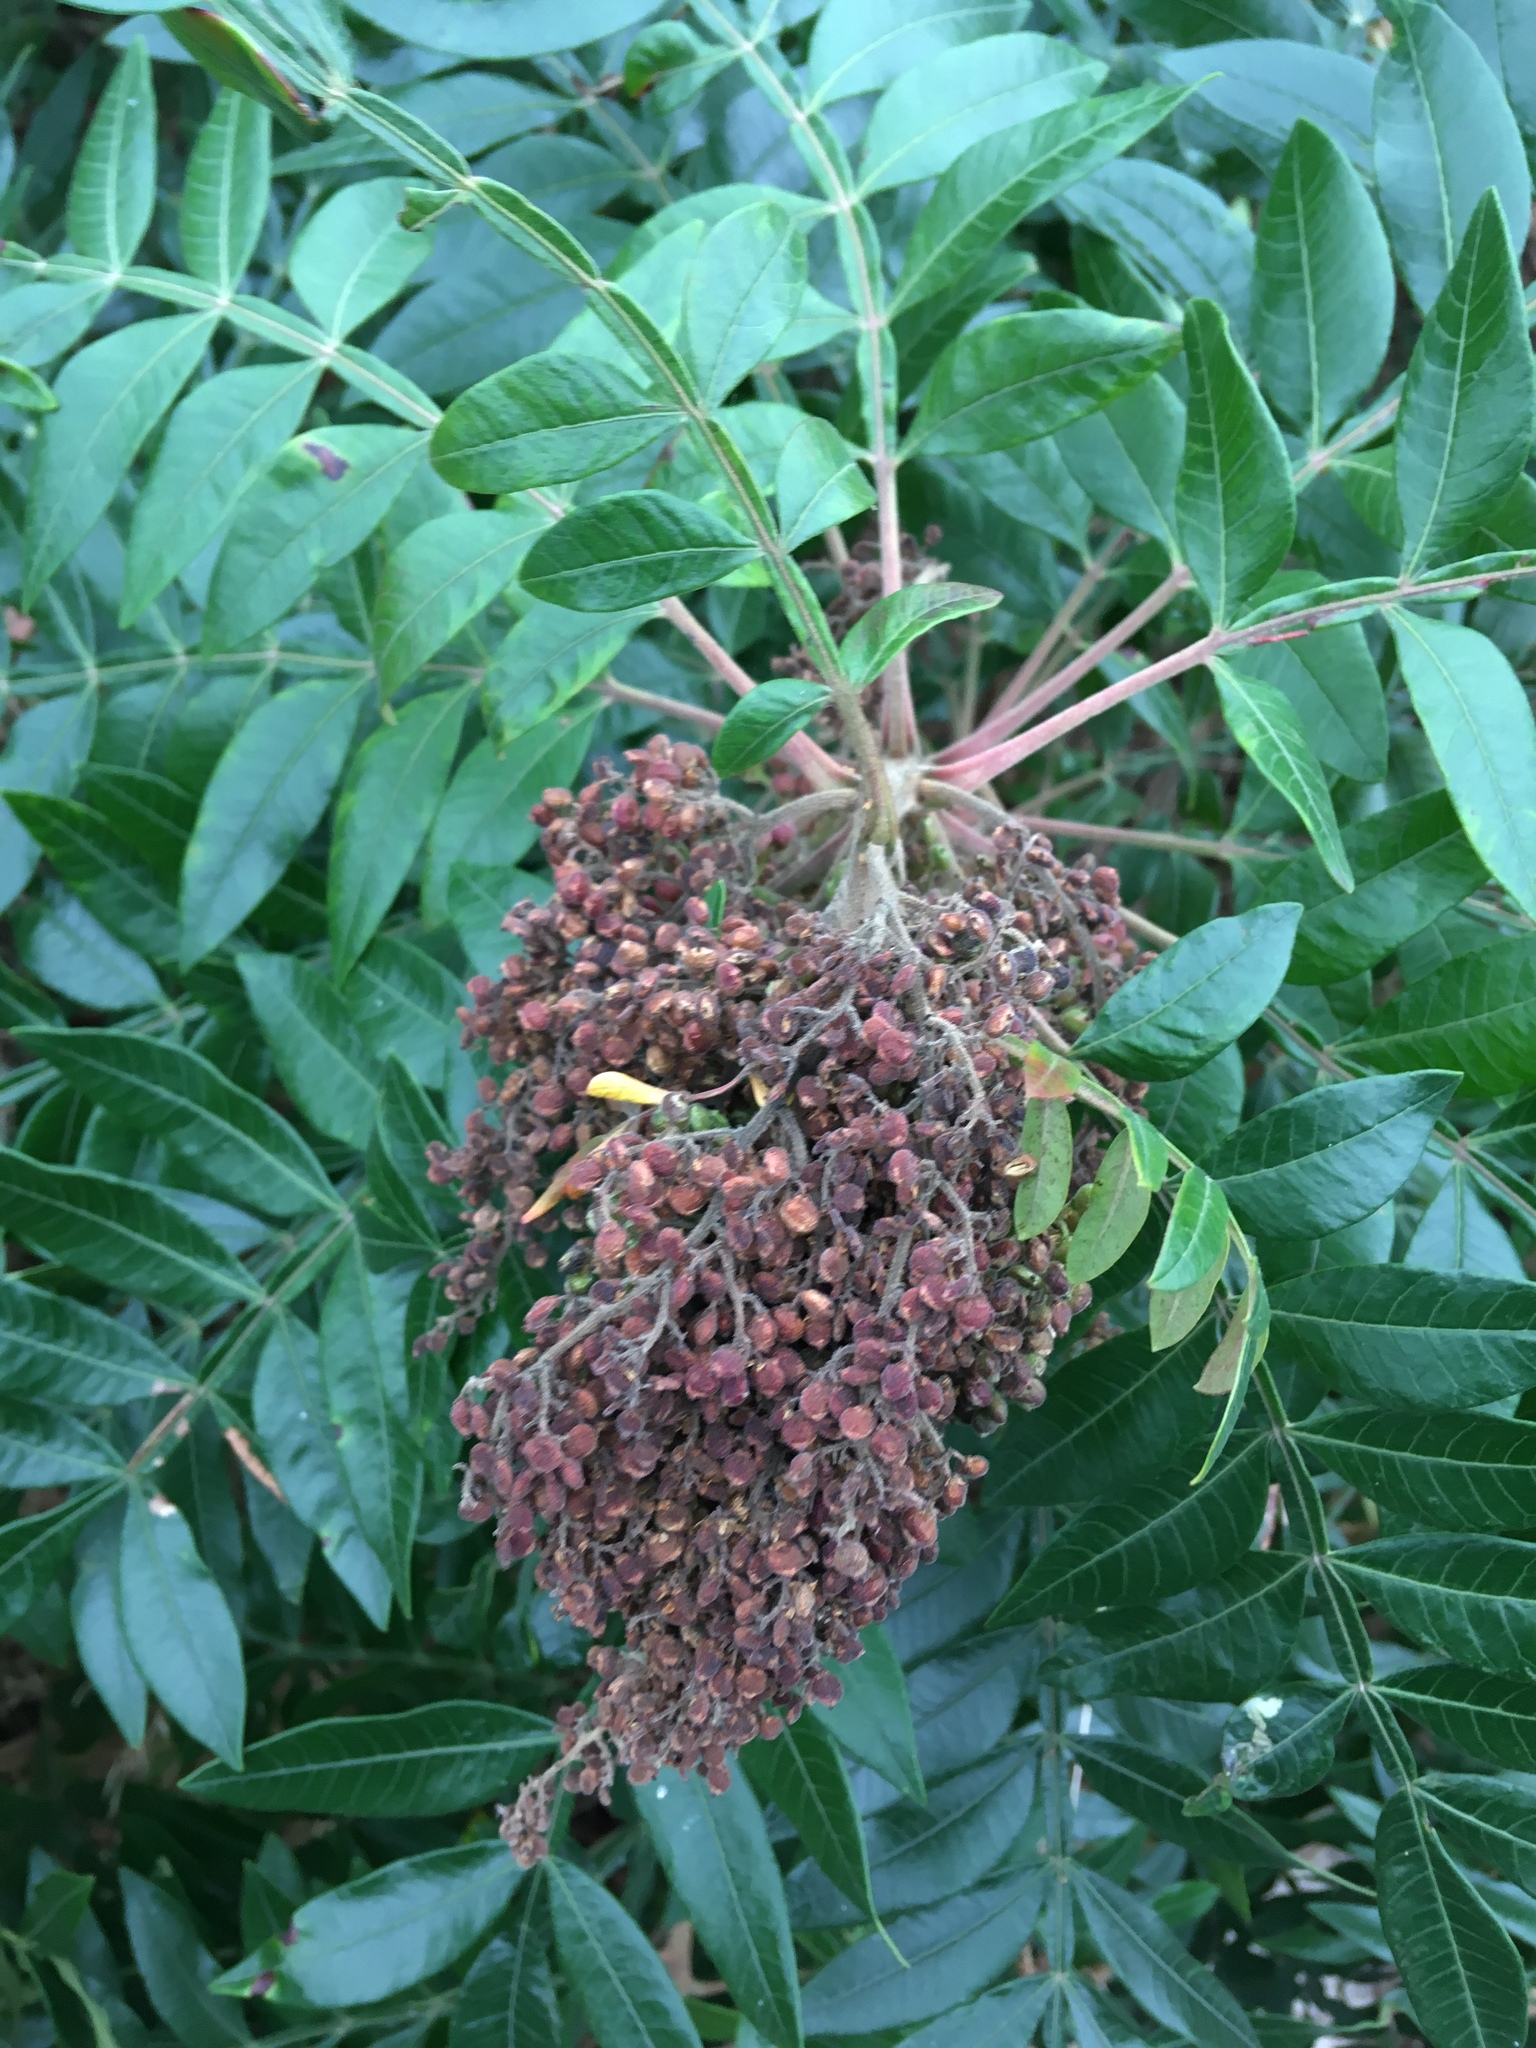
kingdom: Plantae
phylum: Tracheophyta
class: Magnoliopsida
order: Sapindales
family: Anacardiaceae
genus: Rhus
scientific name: Rhus copallina
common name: Shining sumac
